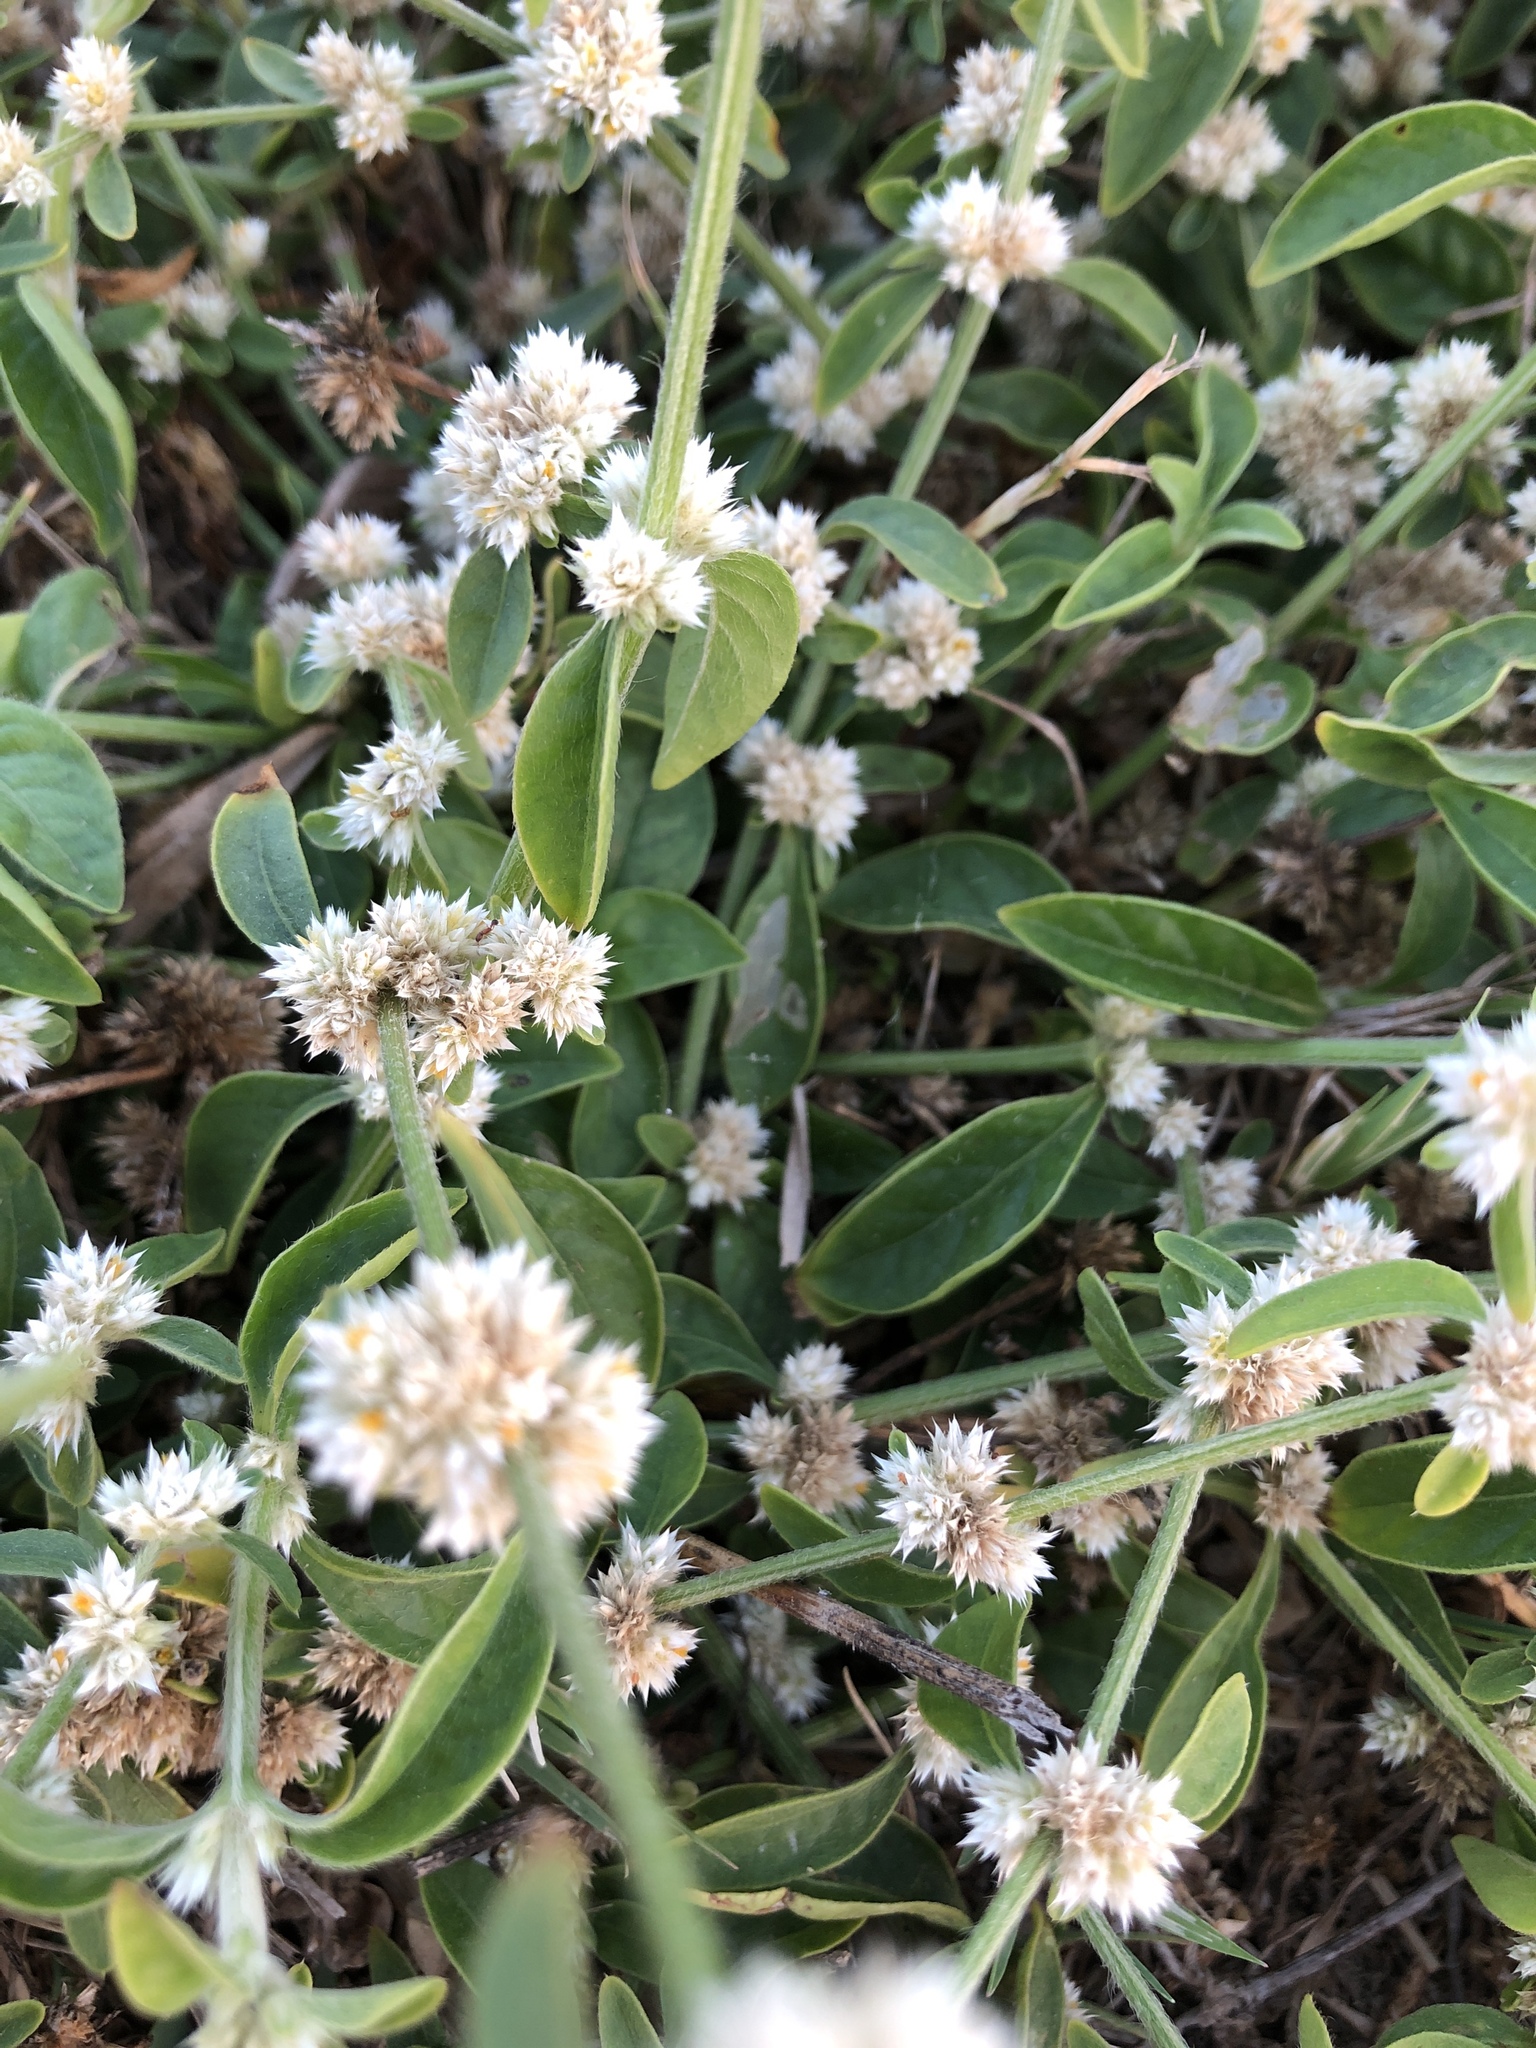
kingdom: Plantae
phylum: Tracheophyta
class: Magnoliopsida
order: Caryophyllales
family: Amaranthaceae
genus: Alternanthera
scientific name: Alternanthera ficoidea
